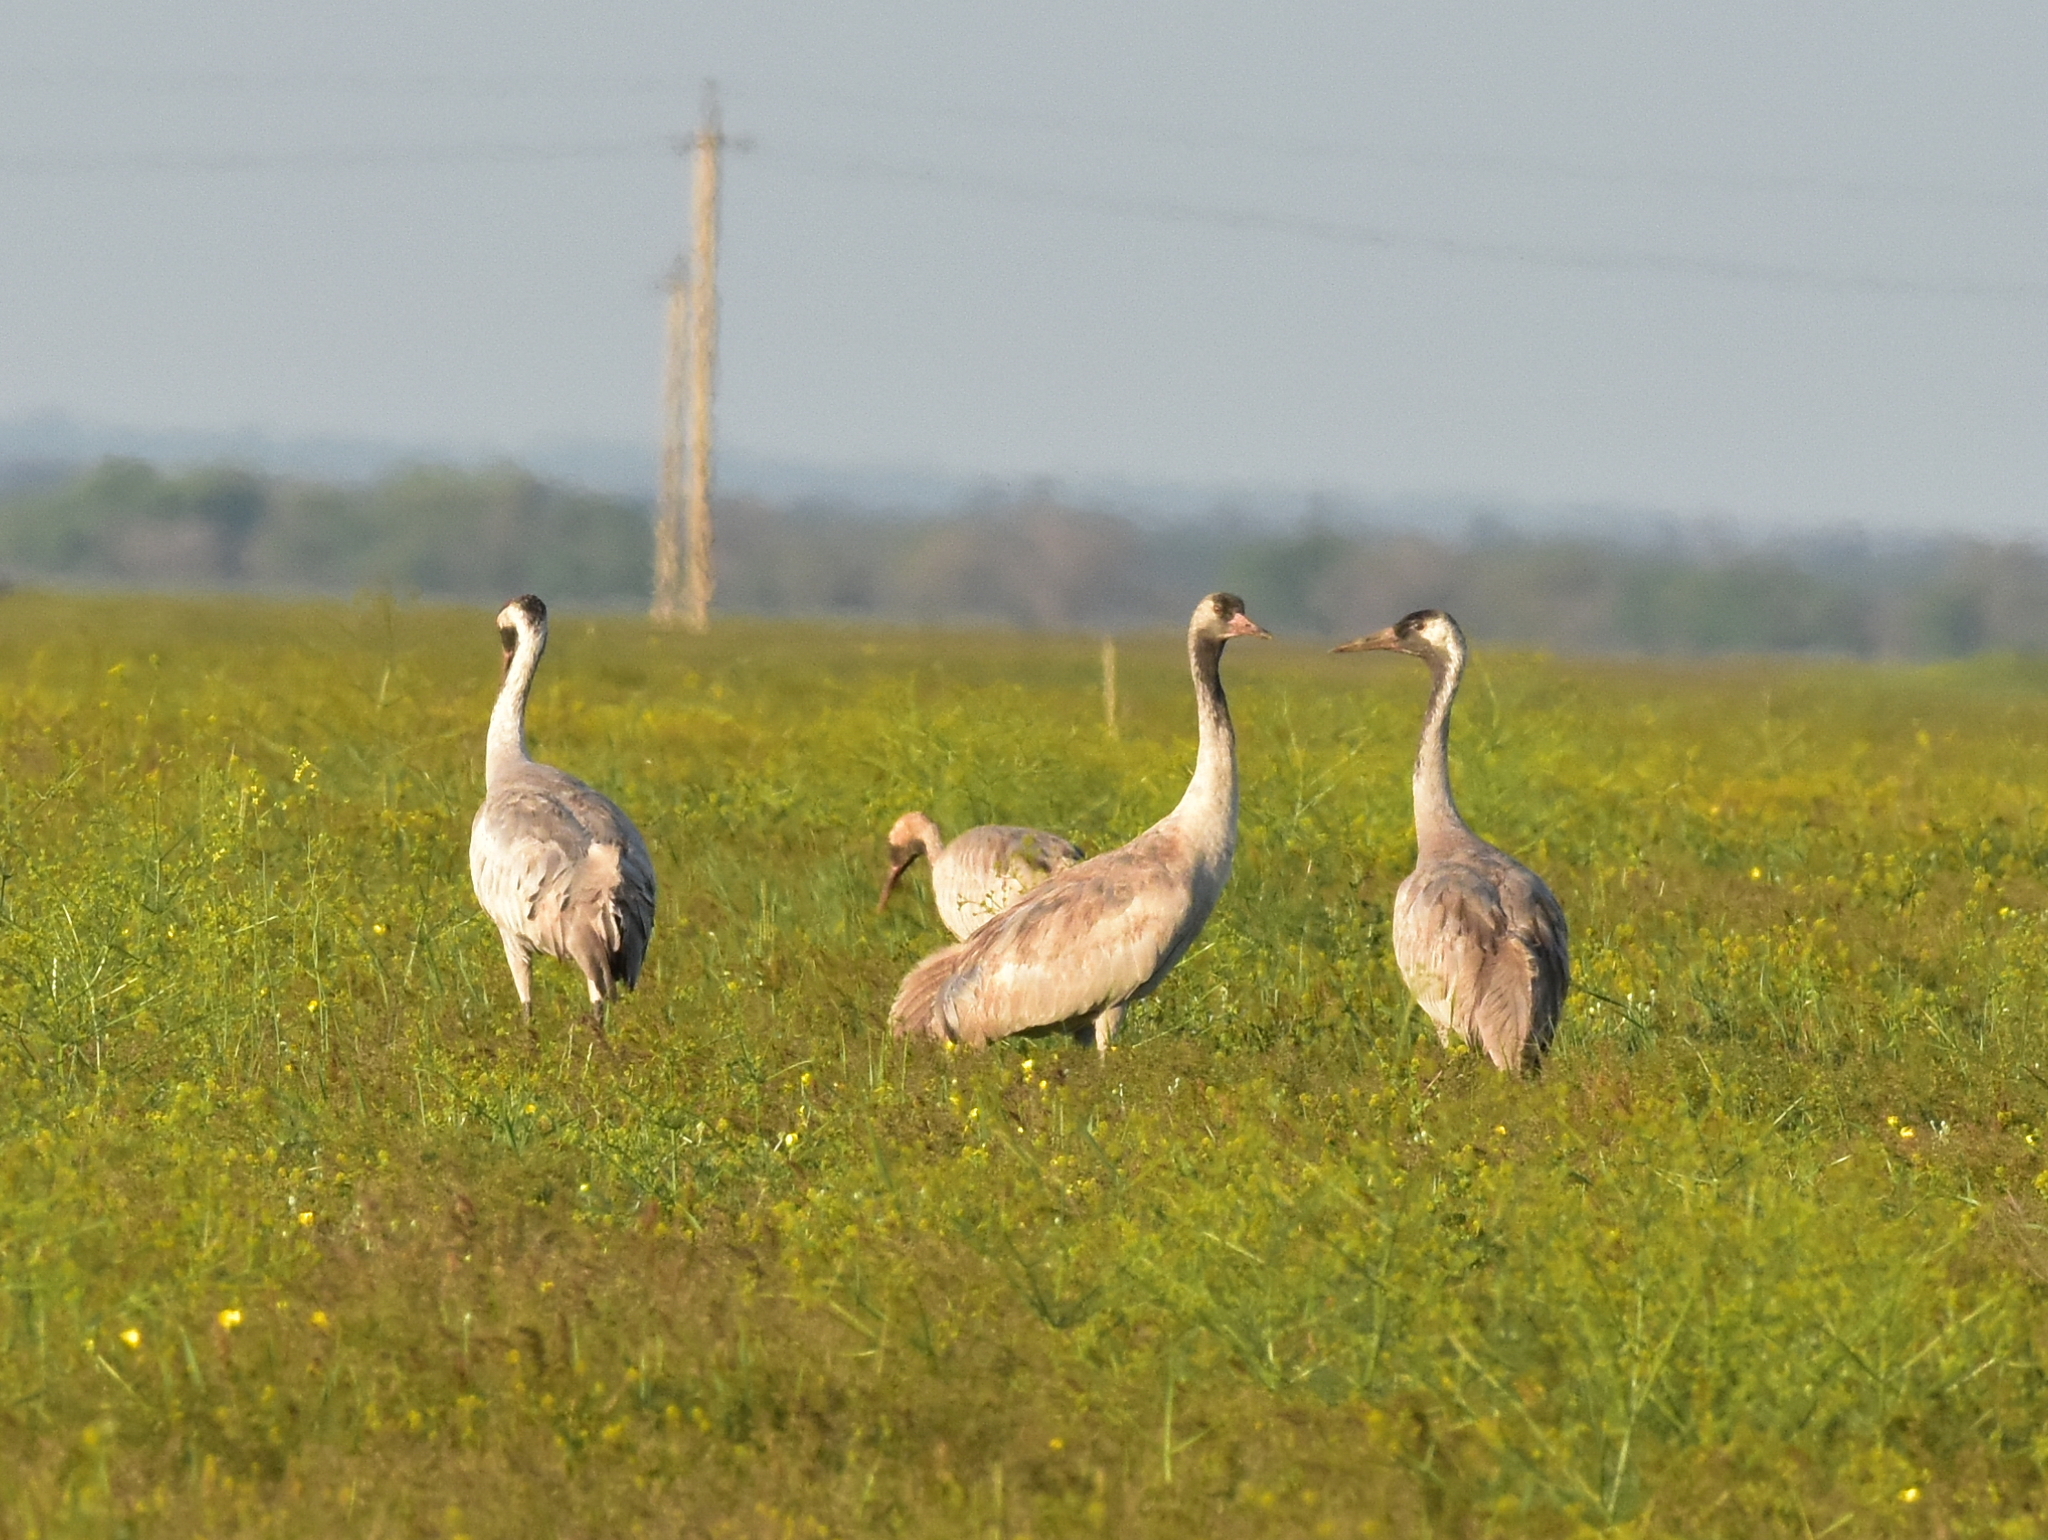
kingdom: Animalia
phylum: Chordata
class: Aves
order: Gruiformes
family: Gruidae
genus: Grus
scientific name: Grus grus
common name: Common crane
